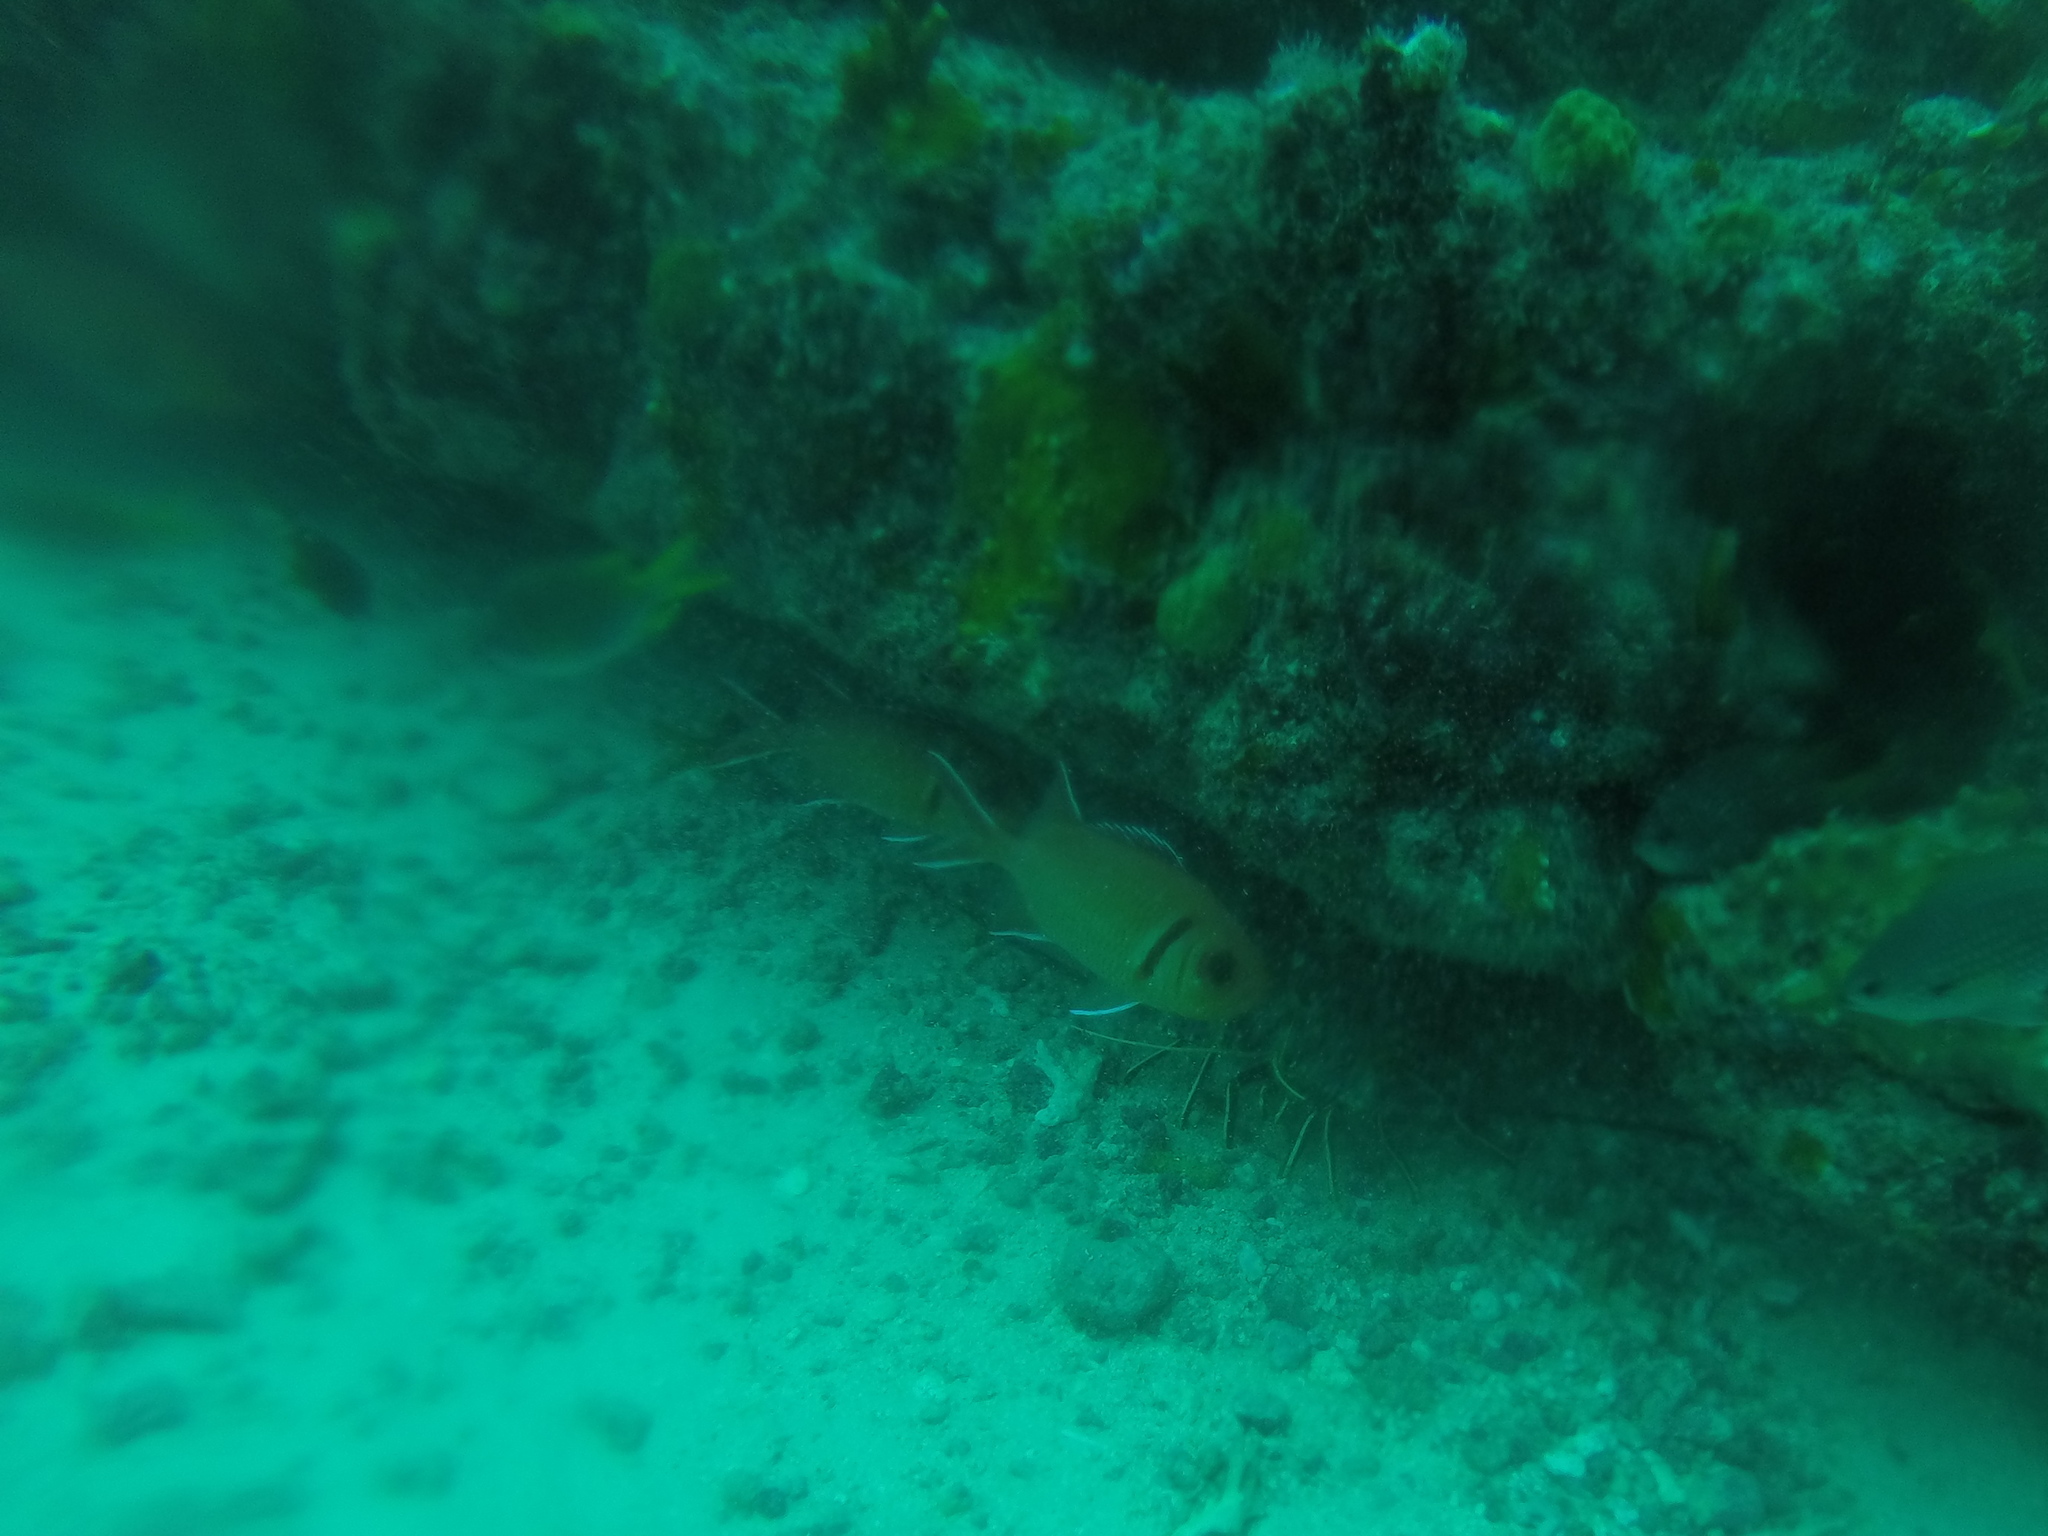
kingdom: Animalia
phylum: Chordata
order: Beryciformes
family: Holocentridae
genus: Myripristis
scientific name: Myripristis jacobus
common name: Blackbar soldierfish
